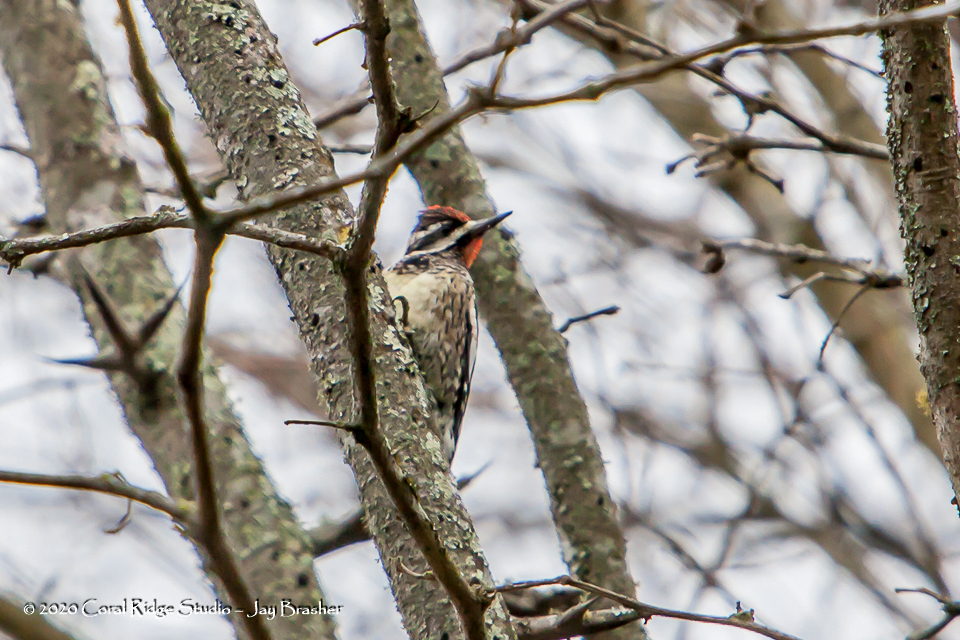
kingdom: Animalia
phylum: Chordata
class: Aves
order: Piciformes
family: Picidae
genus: Sphyrapicus
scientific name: Sphyrapicus varius
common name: Yellow-bellied sapsucker
